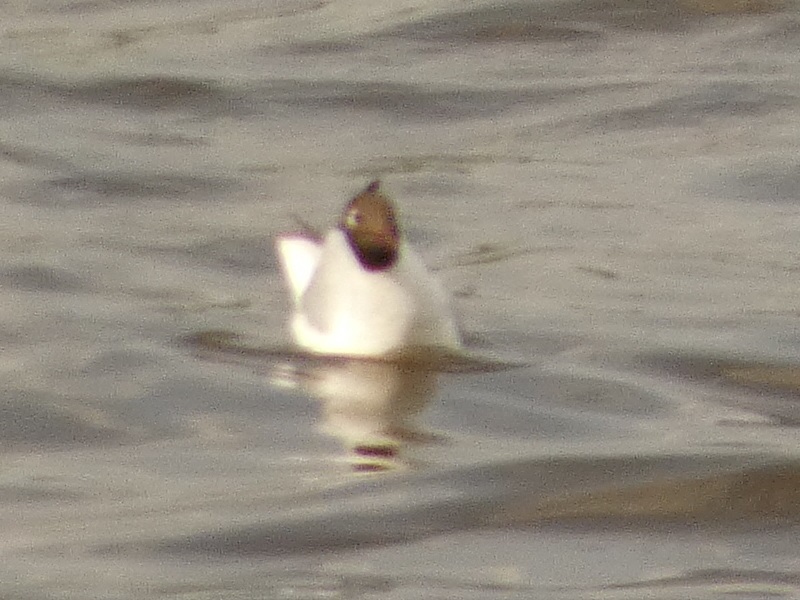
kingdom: Animalia
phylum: Chordata
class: Aves
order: Charadriiformes
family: Laridae
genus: Chroicocephalus
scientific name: Chroicocephalus ridibundus
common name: Black-headed gull
